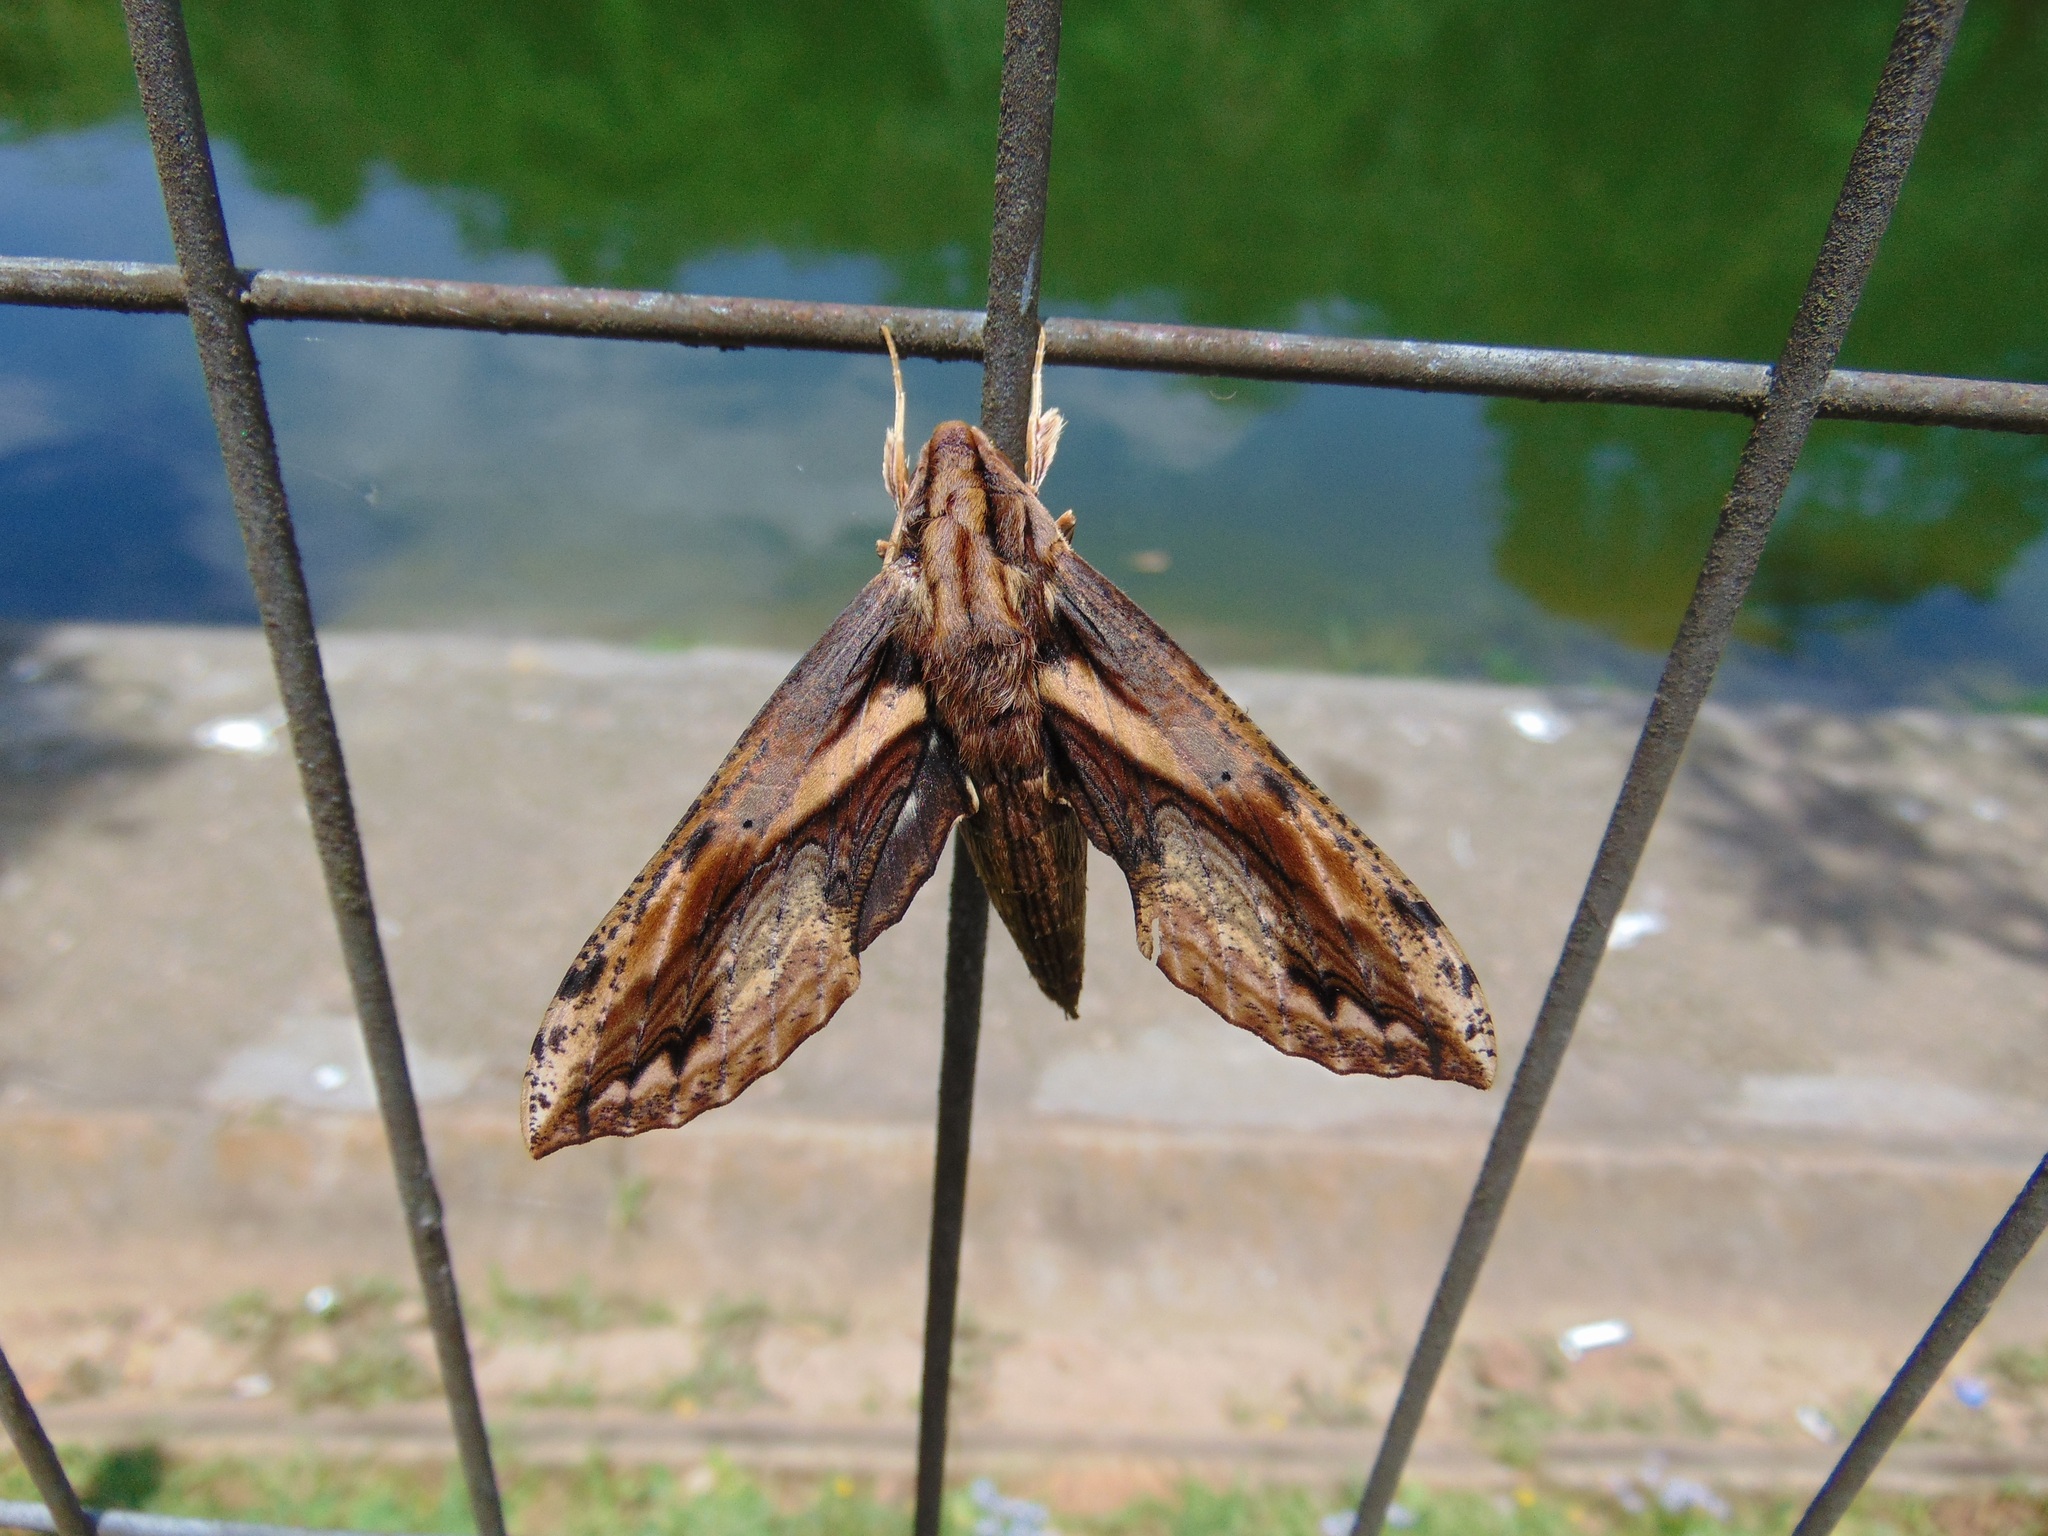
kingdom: Animalia
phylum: Arthropoda
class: Insecta
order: Lepidoptera
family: Sphingidae
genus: Xylophanes
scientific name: Xylophanes crenulatus
